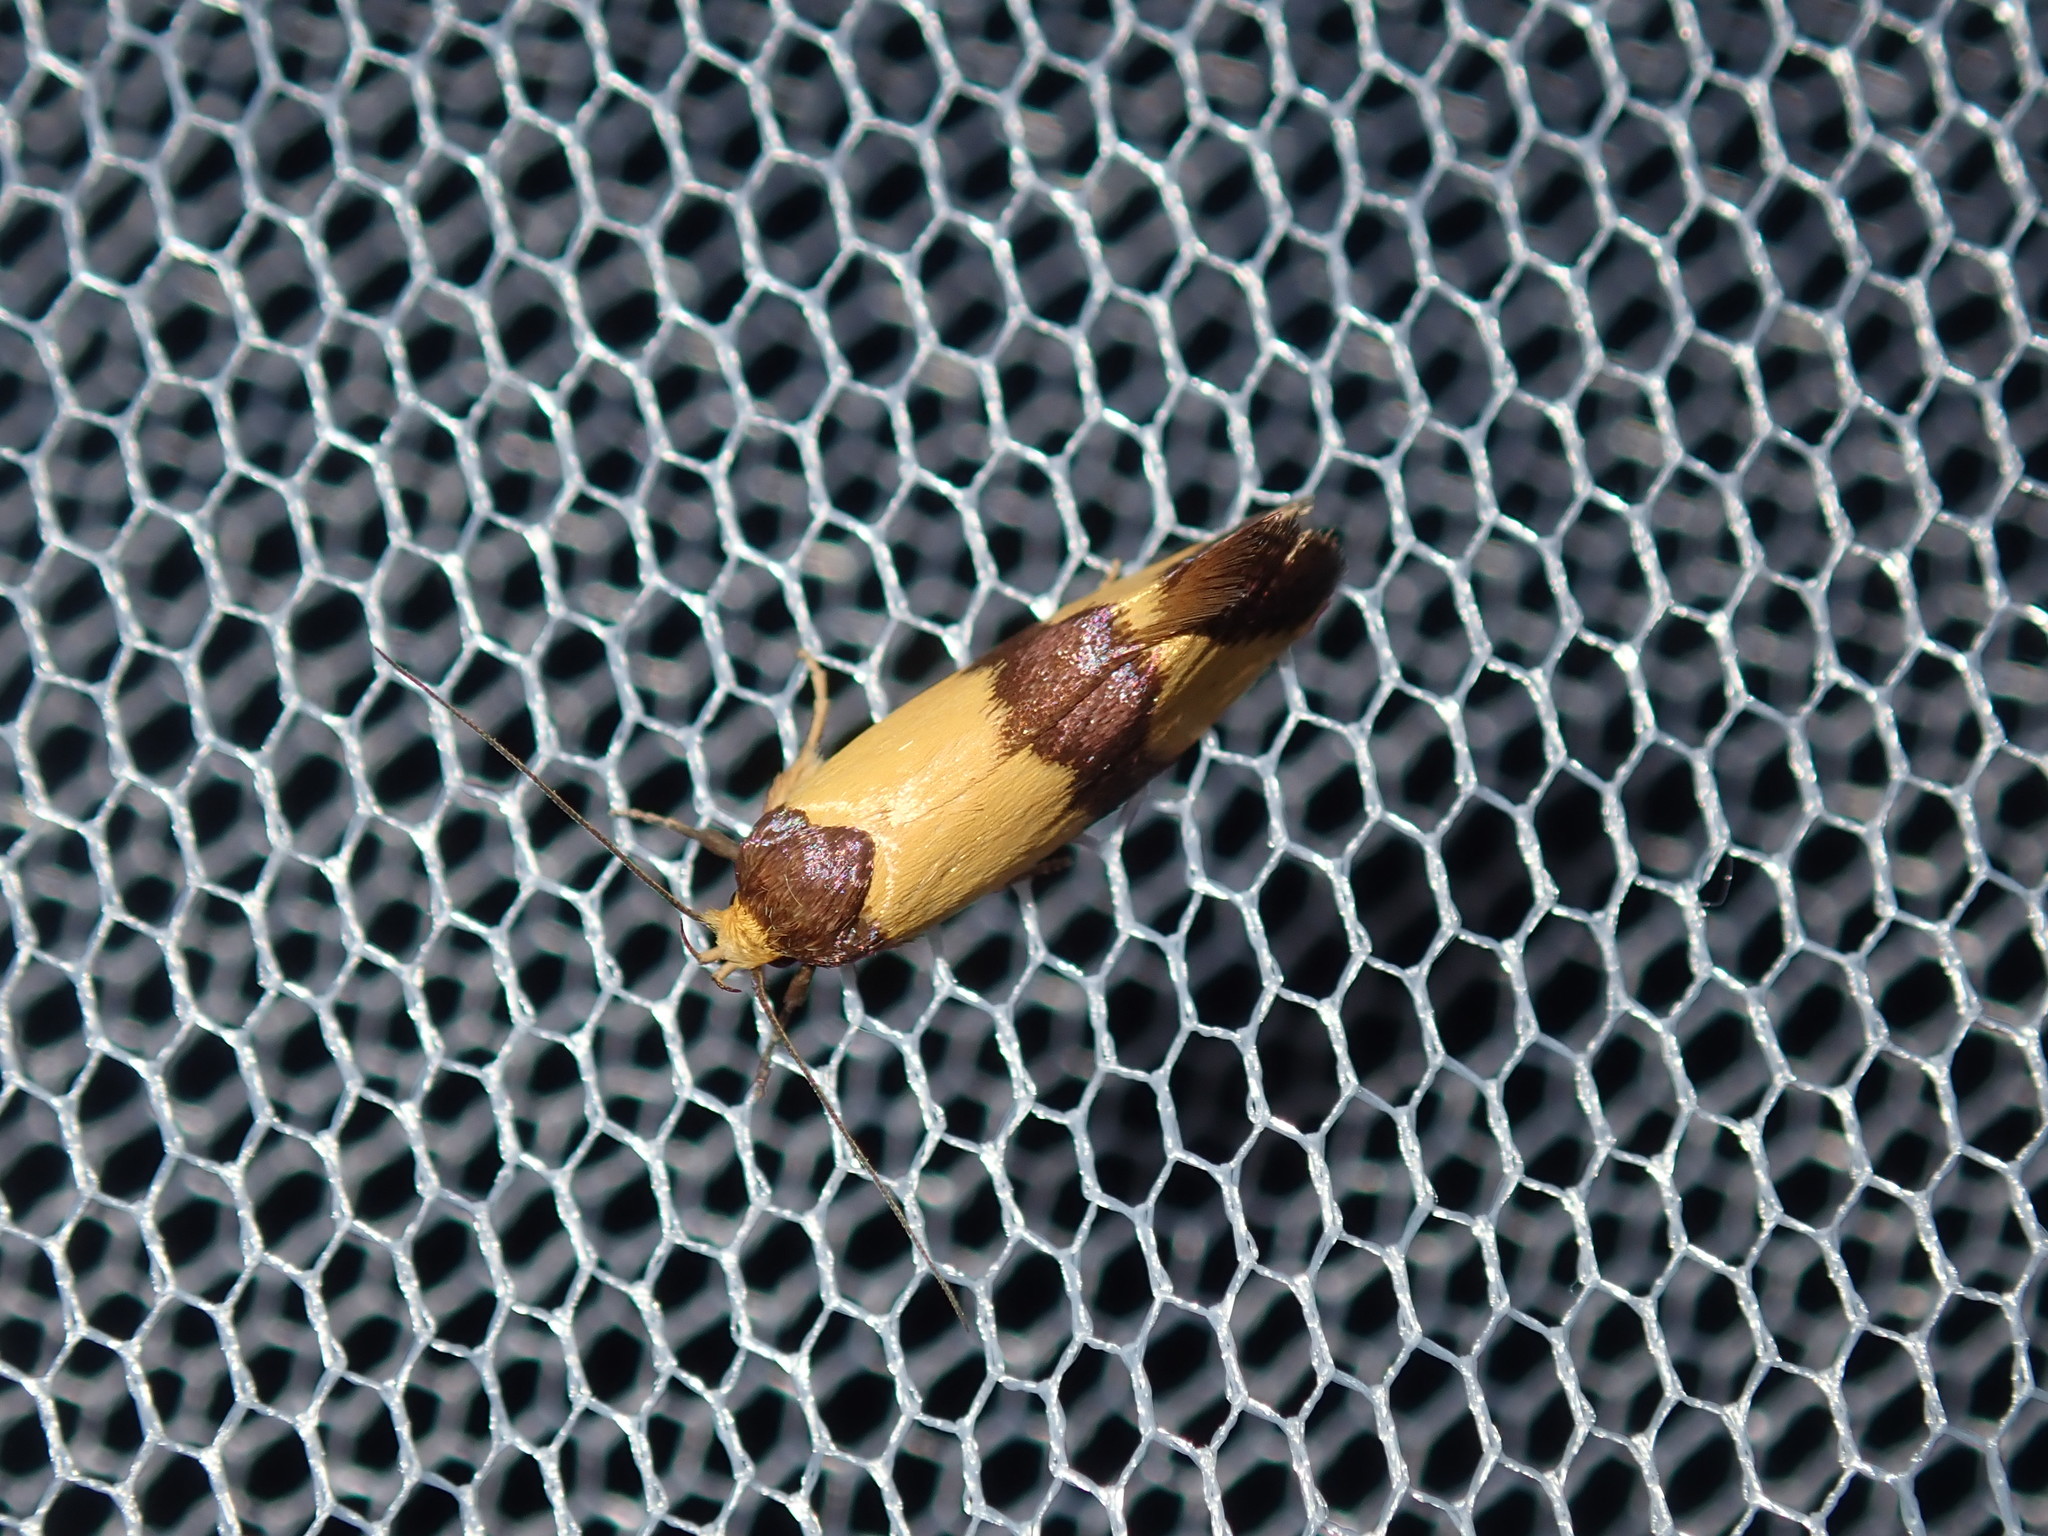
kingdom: Animalia
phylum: Arthropoda
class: Insecta
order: Lepidoptera
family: Oecophoridae
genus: Chrysonoma
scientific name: Chrysonoma fascialis
